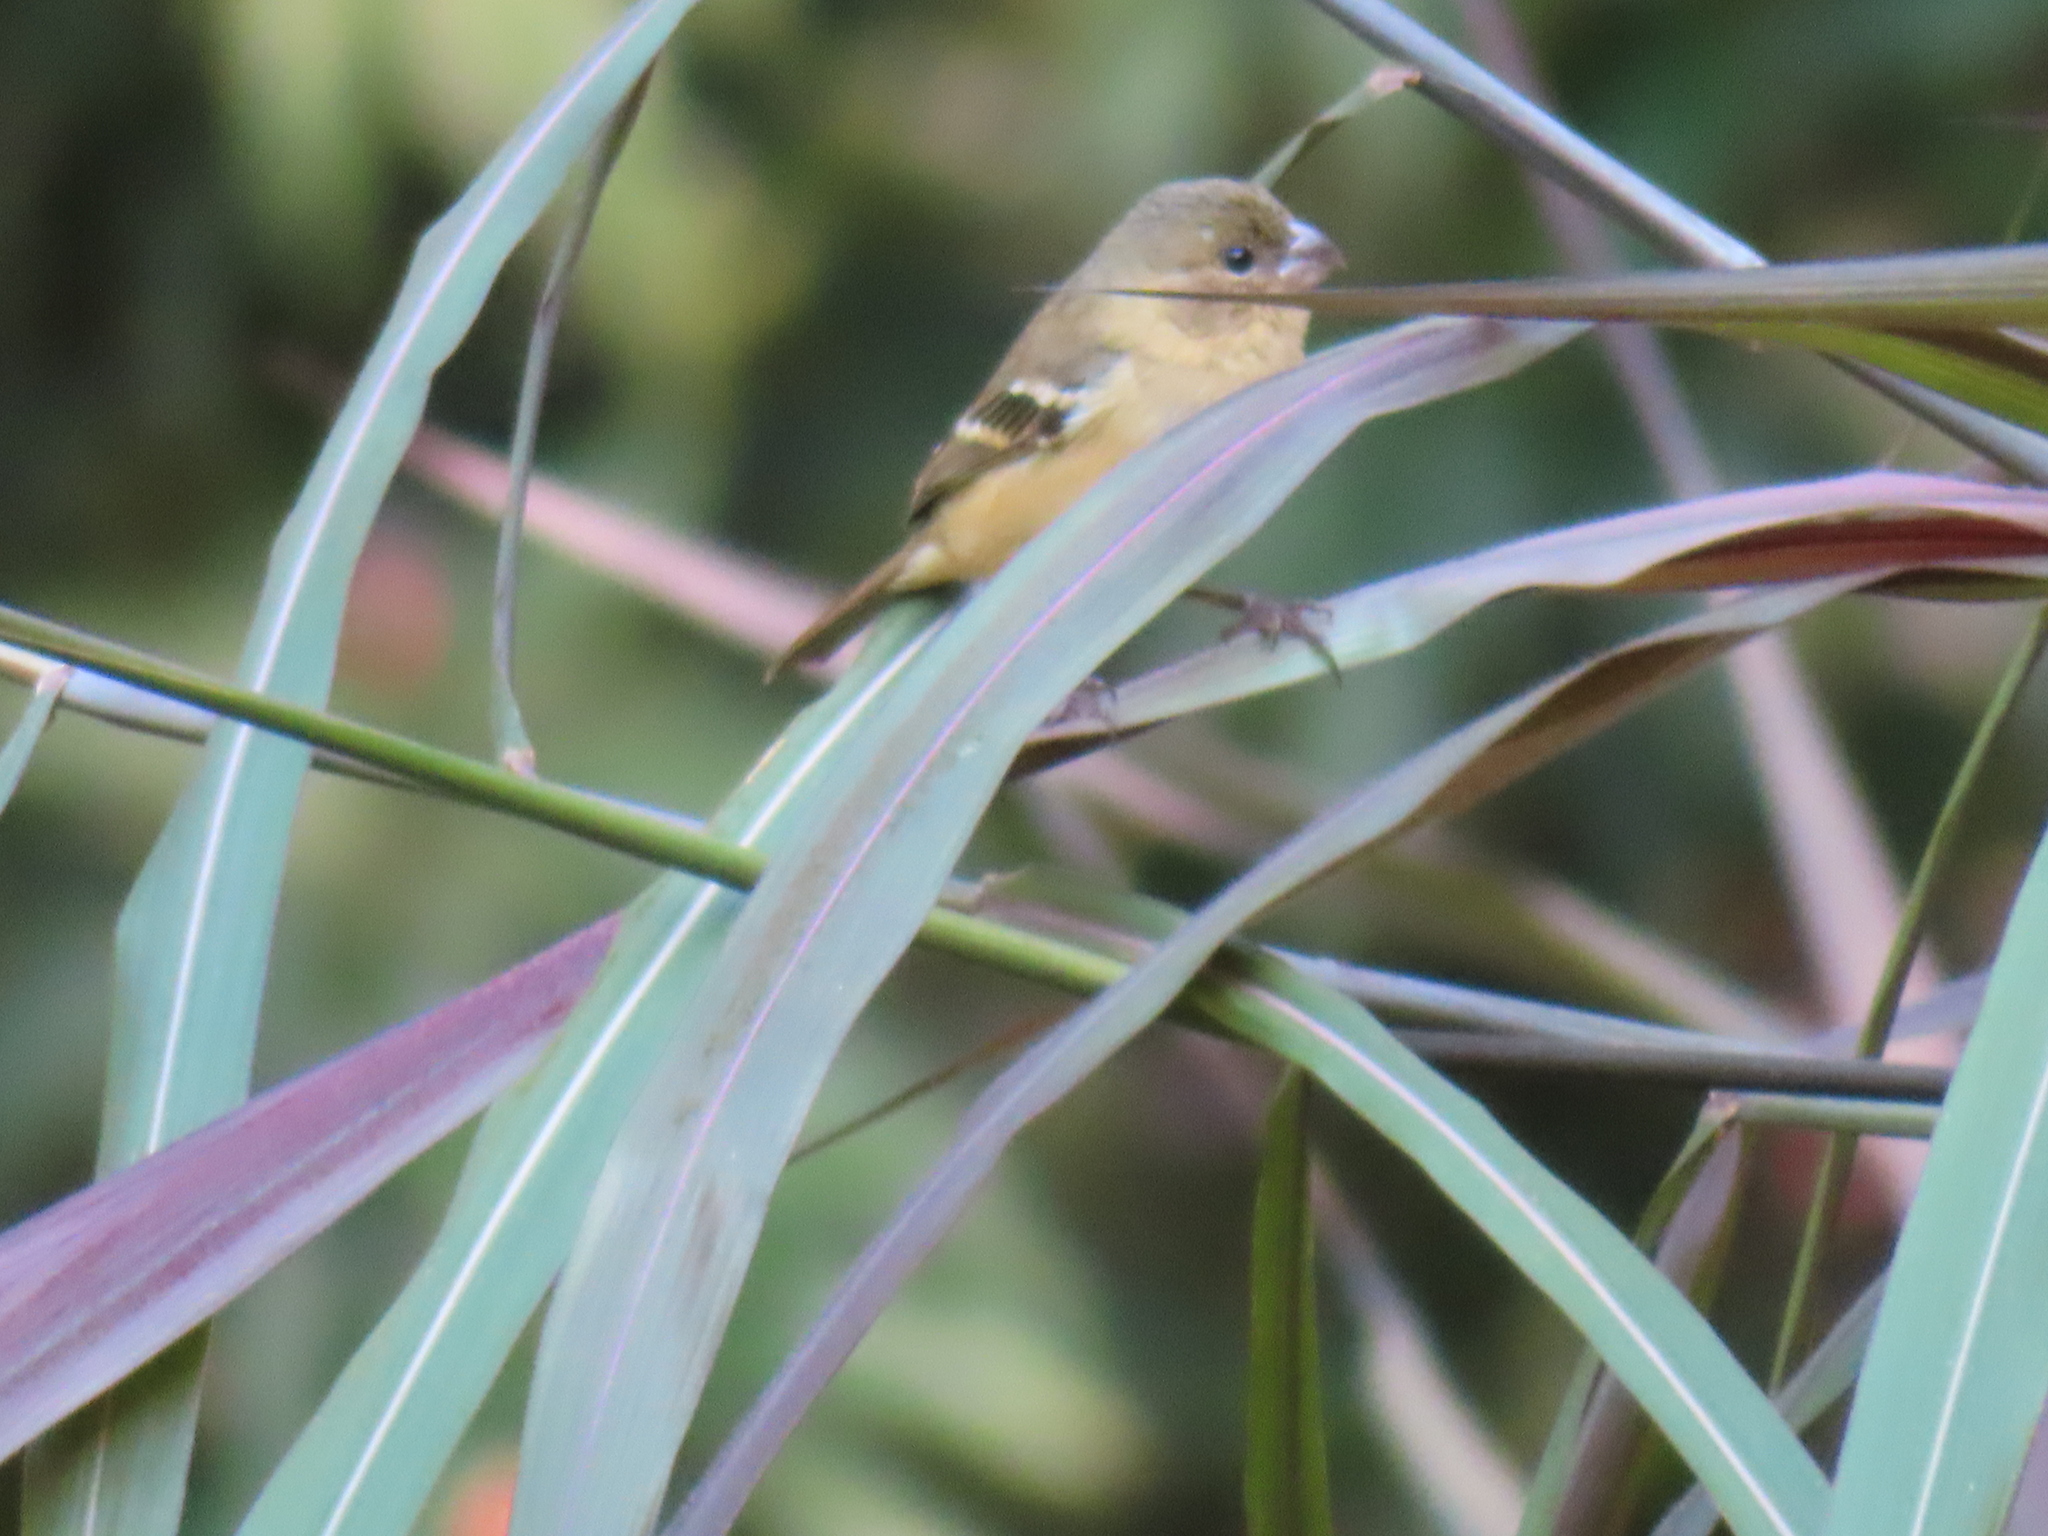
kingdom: Animalia
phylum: Chordata
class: Aves
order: Passeriformes
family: Thraupidae
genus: Sporophila
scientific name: Sporophila morelleti
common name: Morelet's seedeater
